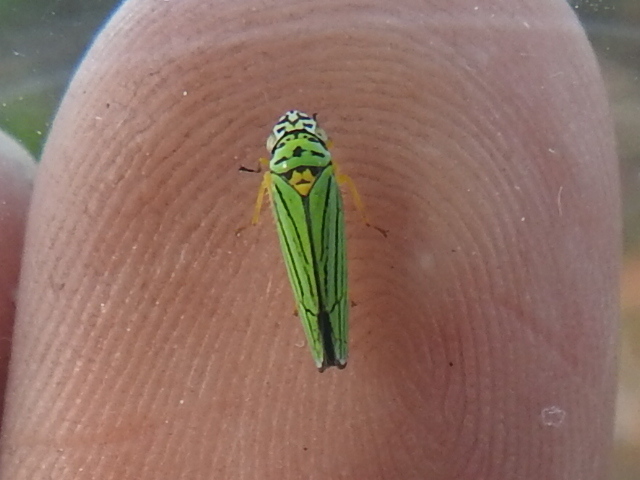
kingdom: Animalia
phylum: Arthropoda
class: Insecta
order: Hemiptera
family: Cicadellidae
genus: Graphocephala
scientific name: Graphocephala atropunctata
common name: Blue-green sharpshooter
